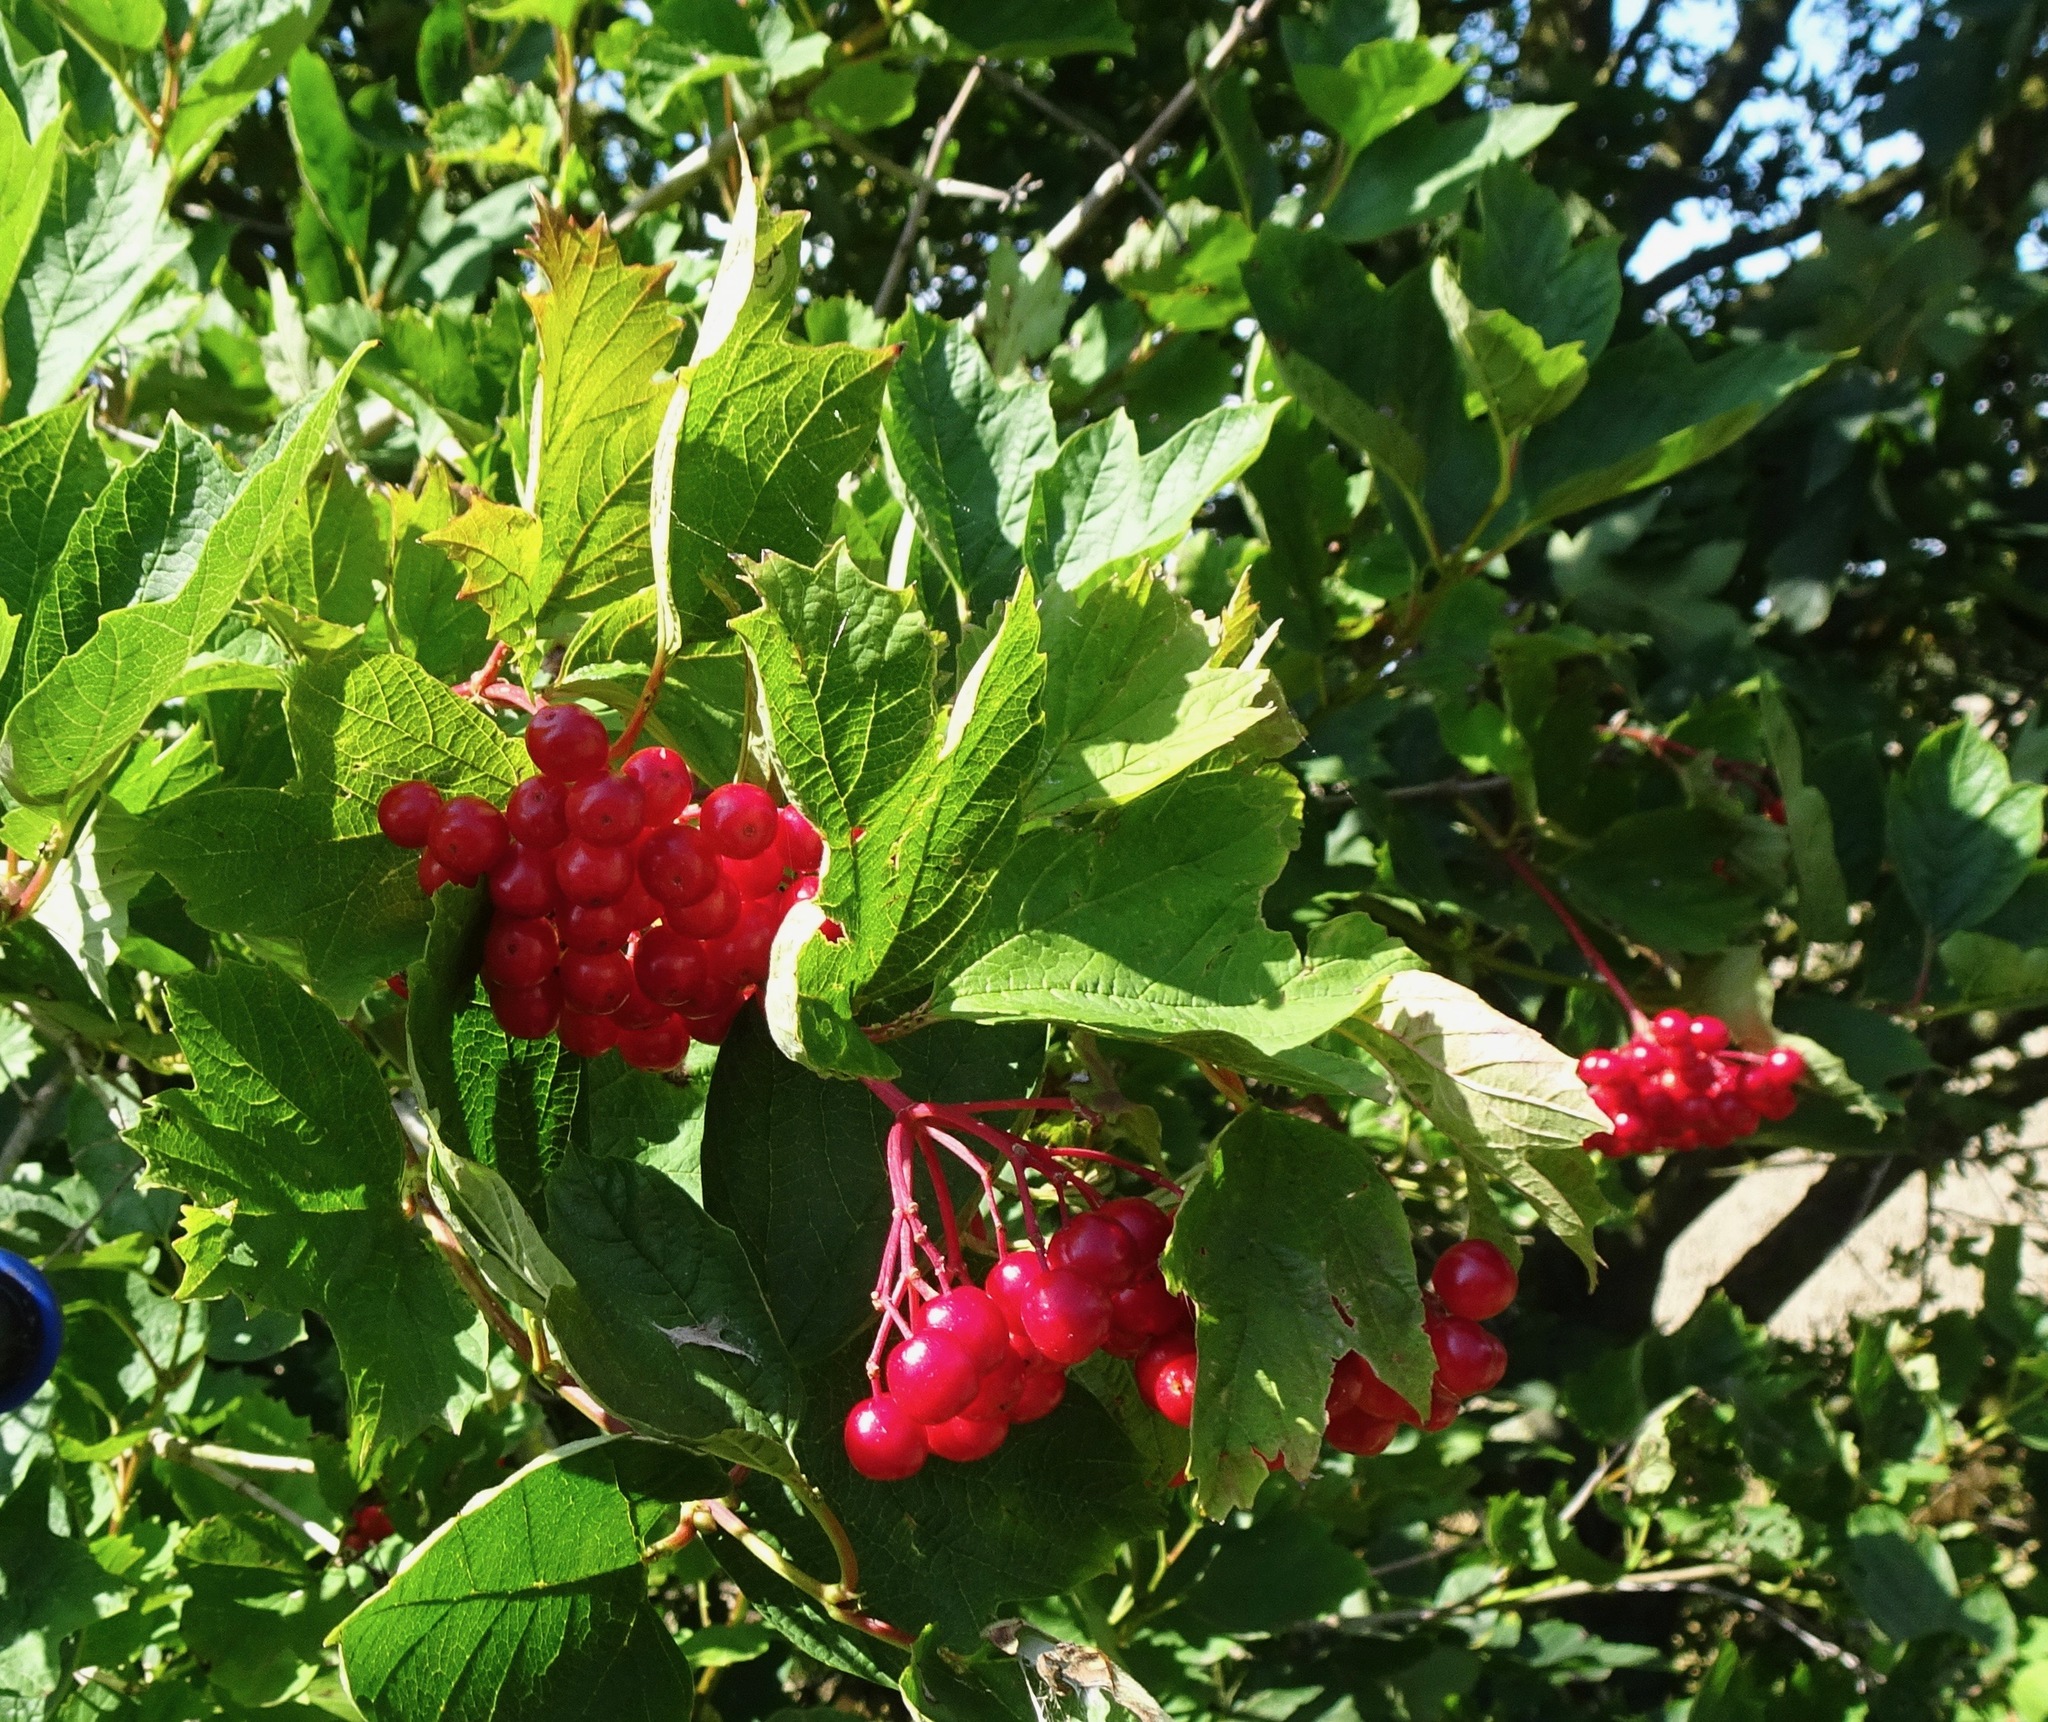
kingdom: Plantae
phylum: Tracheophyta
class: Magnoliopsida
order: Dipsacales
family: Viburnaceae
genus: Viburnum
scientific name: Viburnum opulus
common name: Guelder-rose
